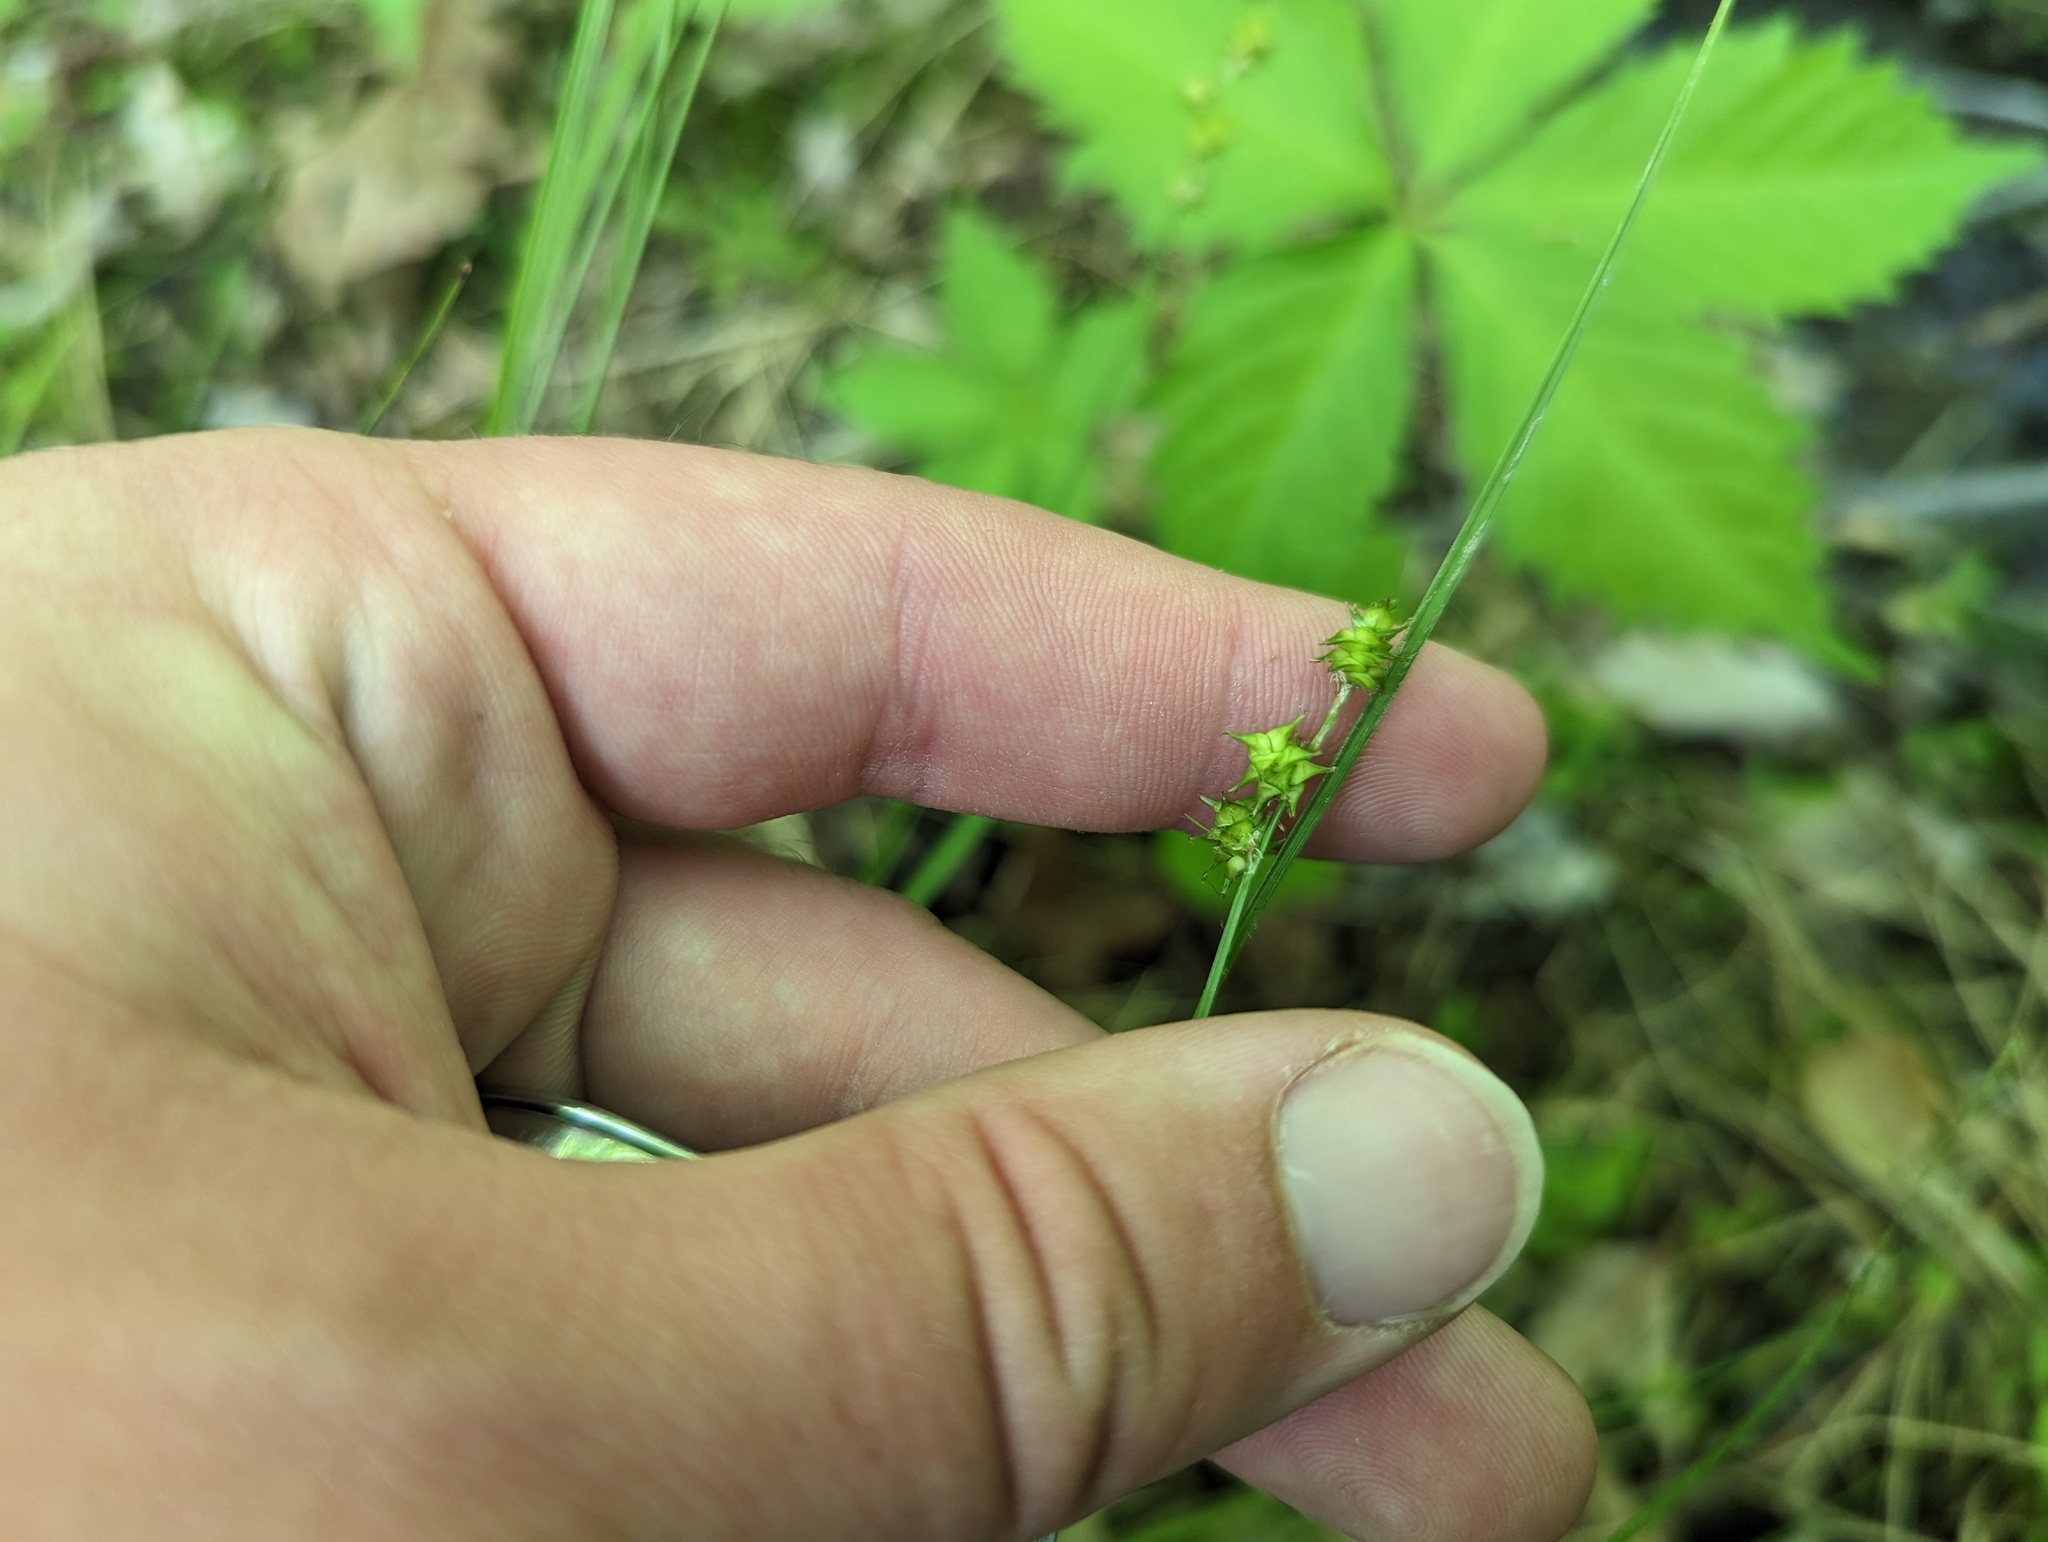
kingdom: Plantae
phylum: Tracheophyta
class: Liliopsida
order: Poales
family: Cyperaceae
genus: Carex
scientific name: Carex atlantica
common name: Atlantic sedge
